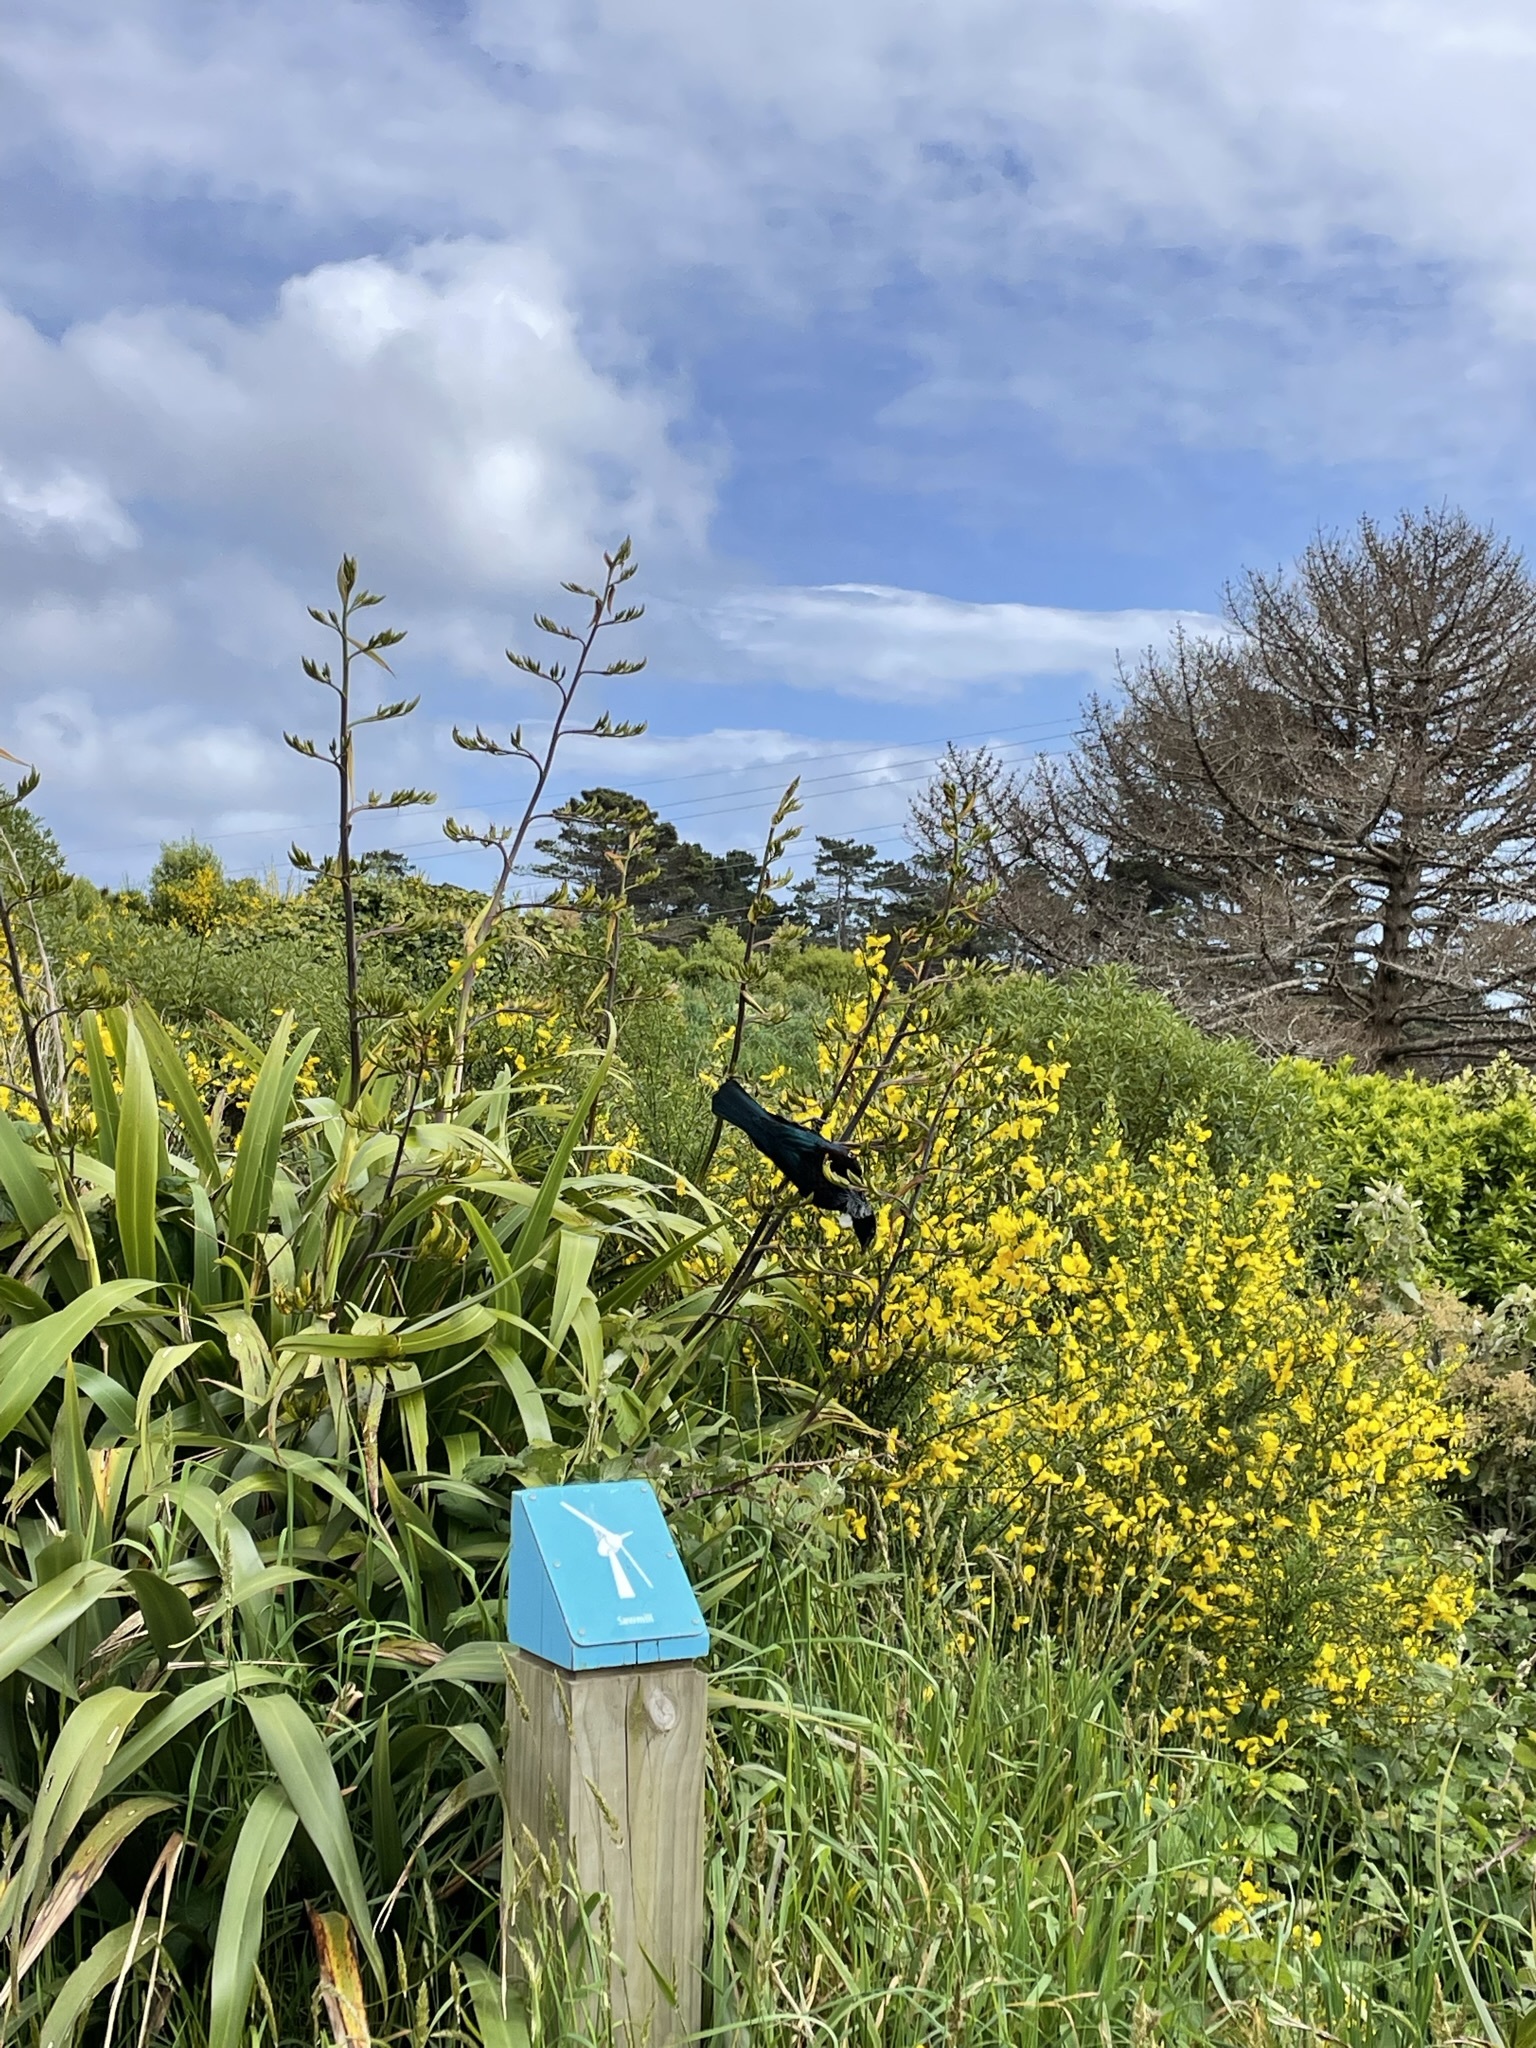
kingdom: Animalia
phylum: Chordata
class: Aves
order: Passeriformes
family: Meliphagidae
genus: Prosthemadera
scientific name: Prosthemadera novaeseelandiae
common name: Tui
